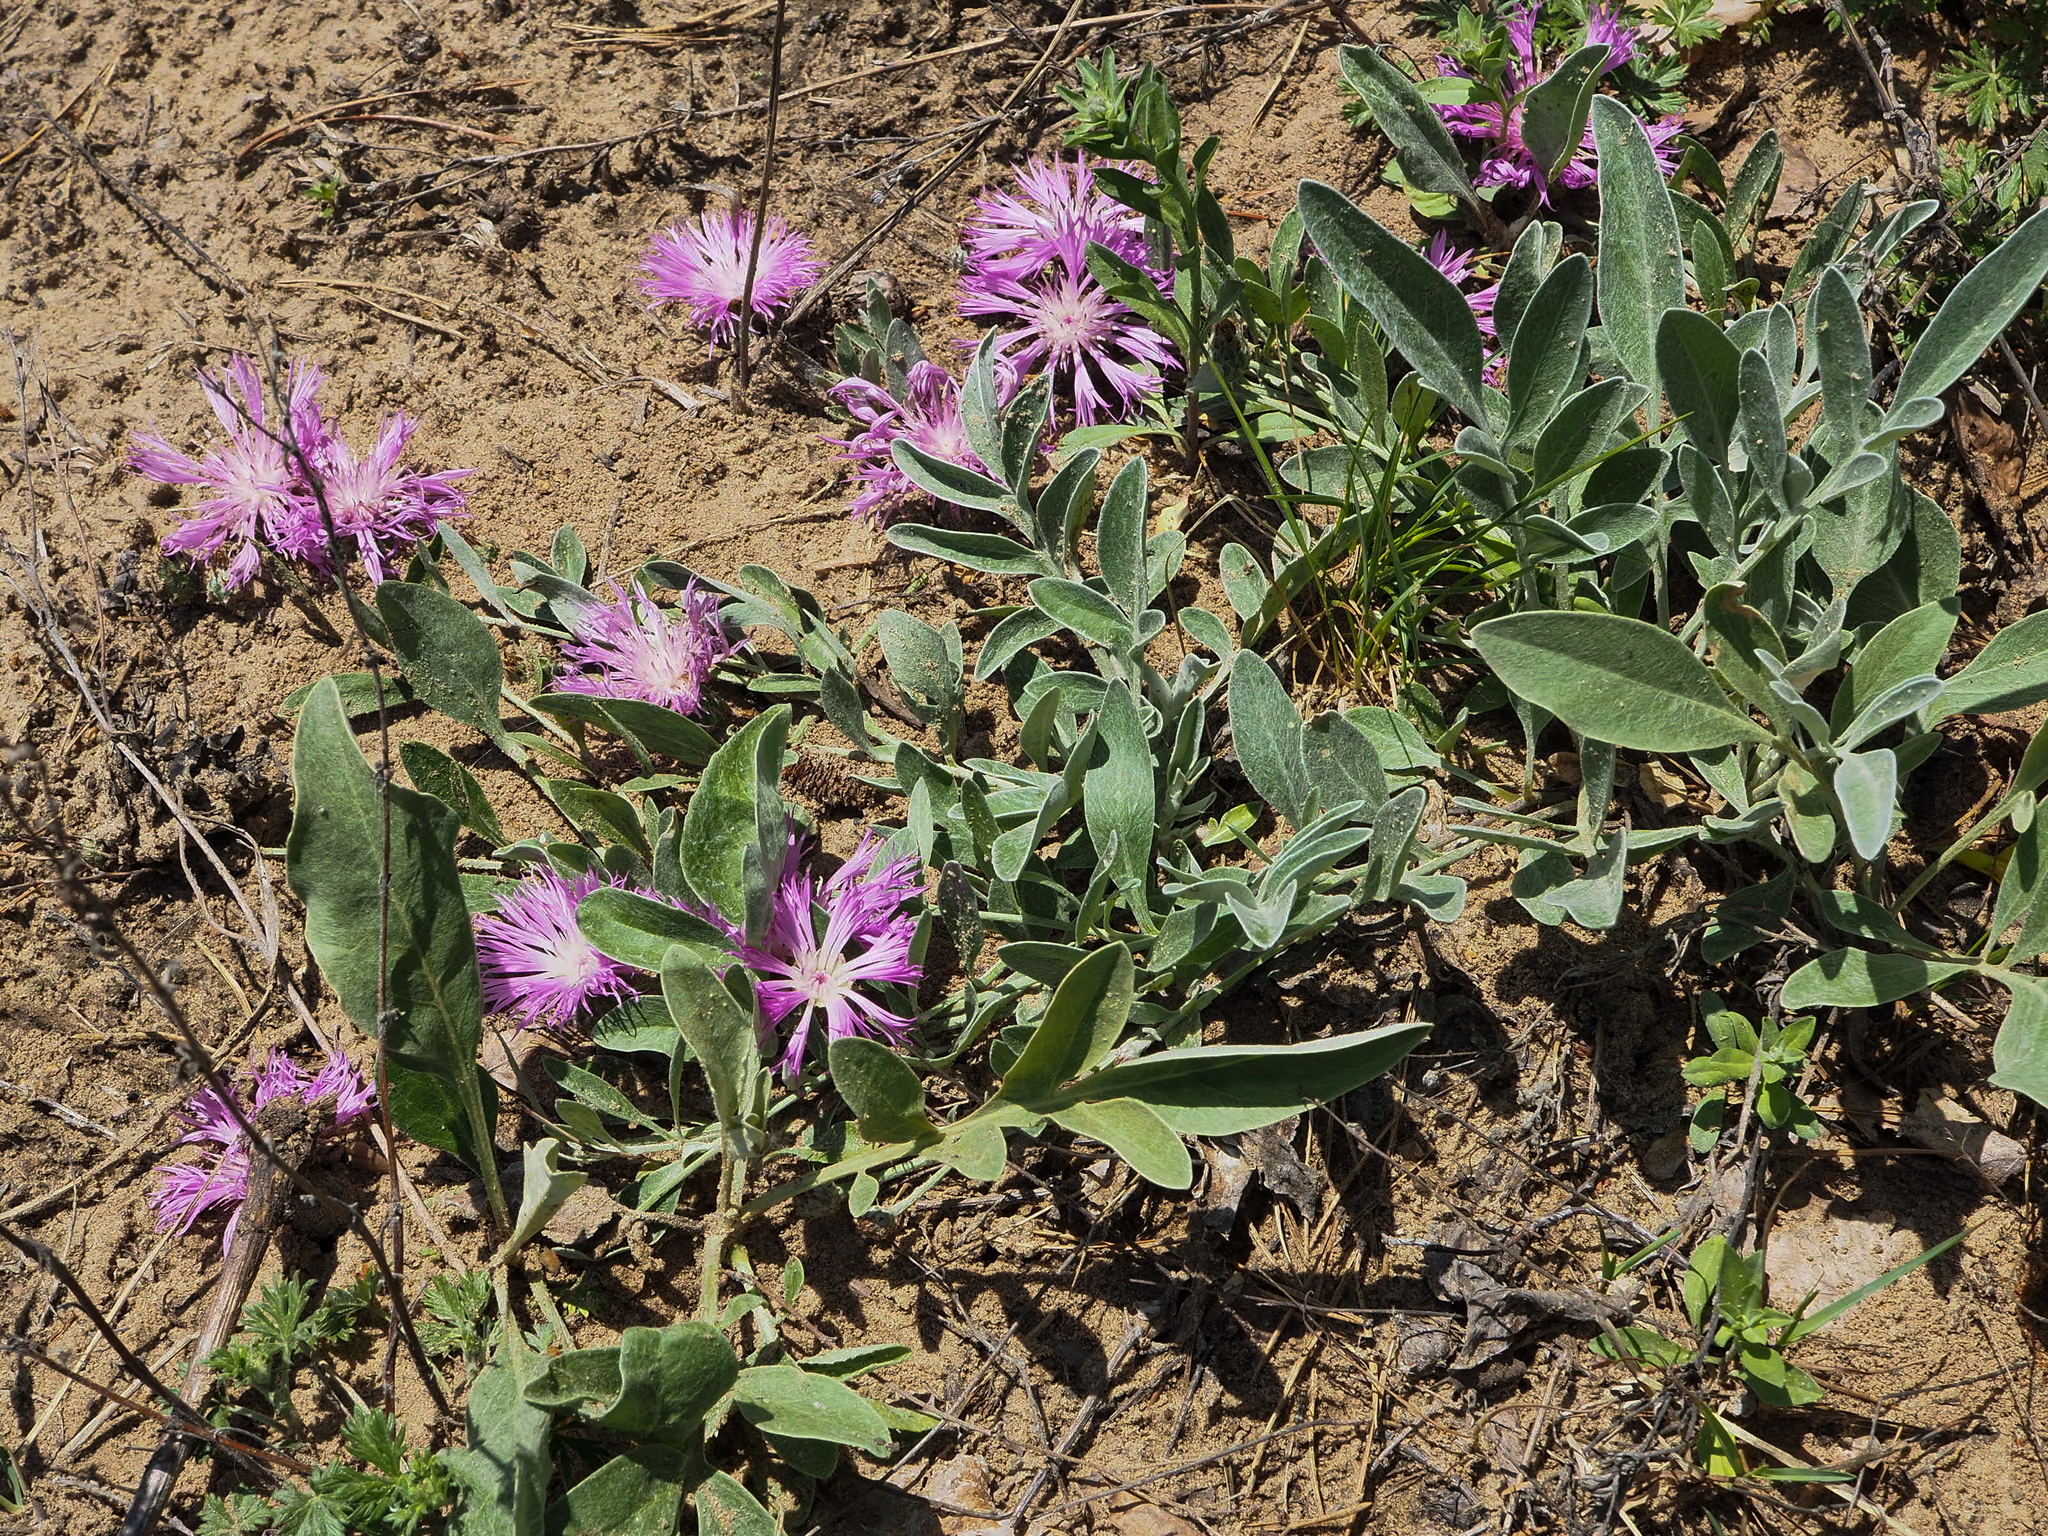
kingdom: Plantae
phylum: Tracheophyta
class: Magnoliopsida
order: Asterales
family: Asteraceae
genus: Psephellus
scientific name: Psephellus sumensis
